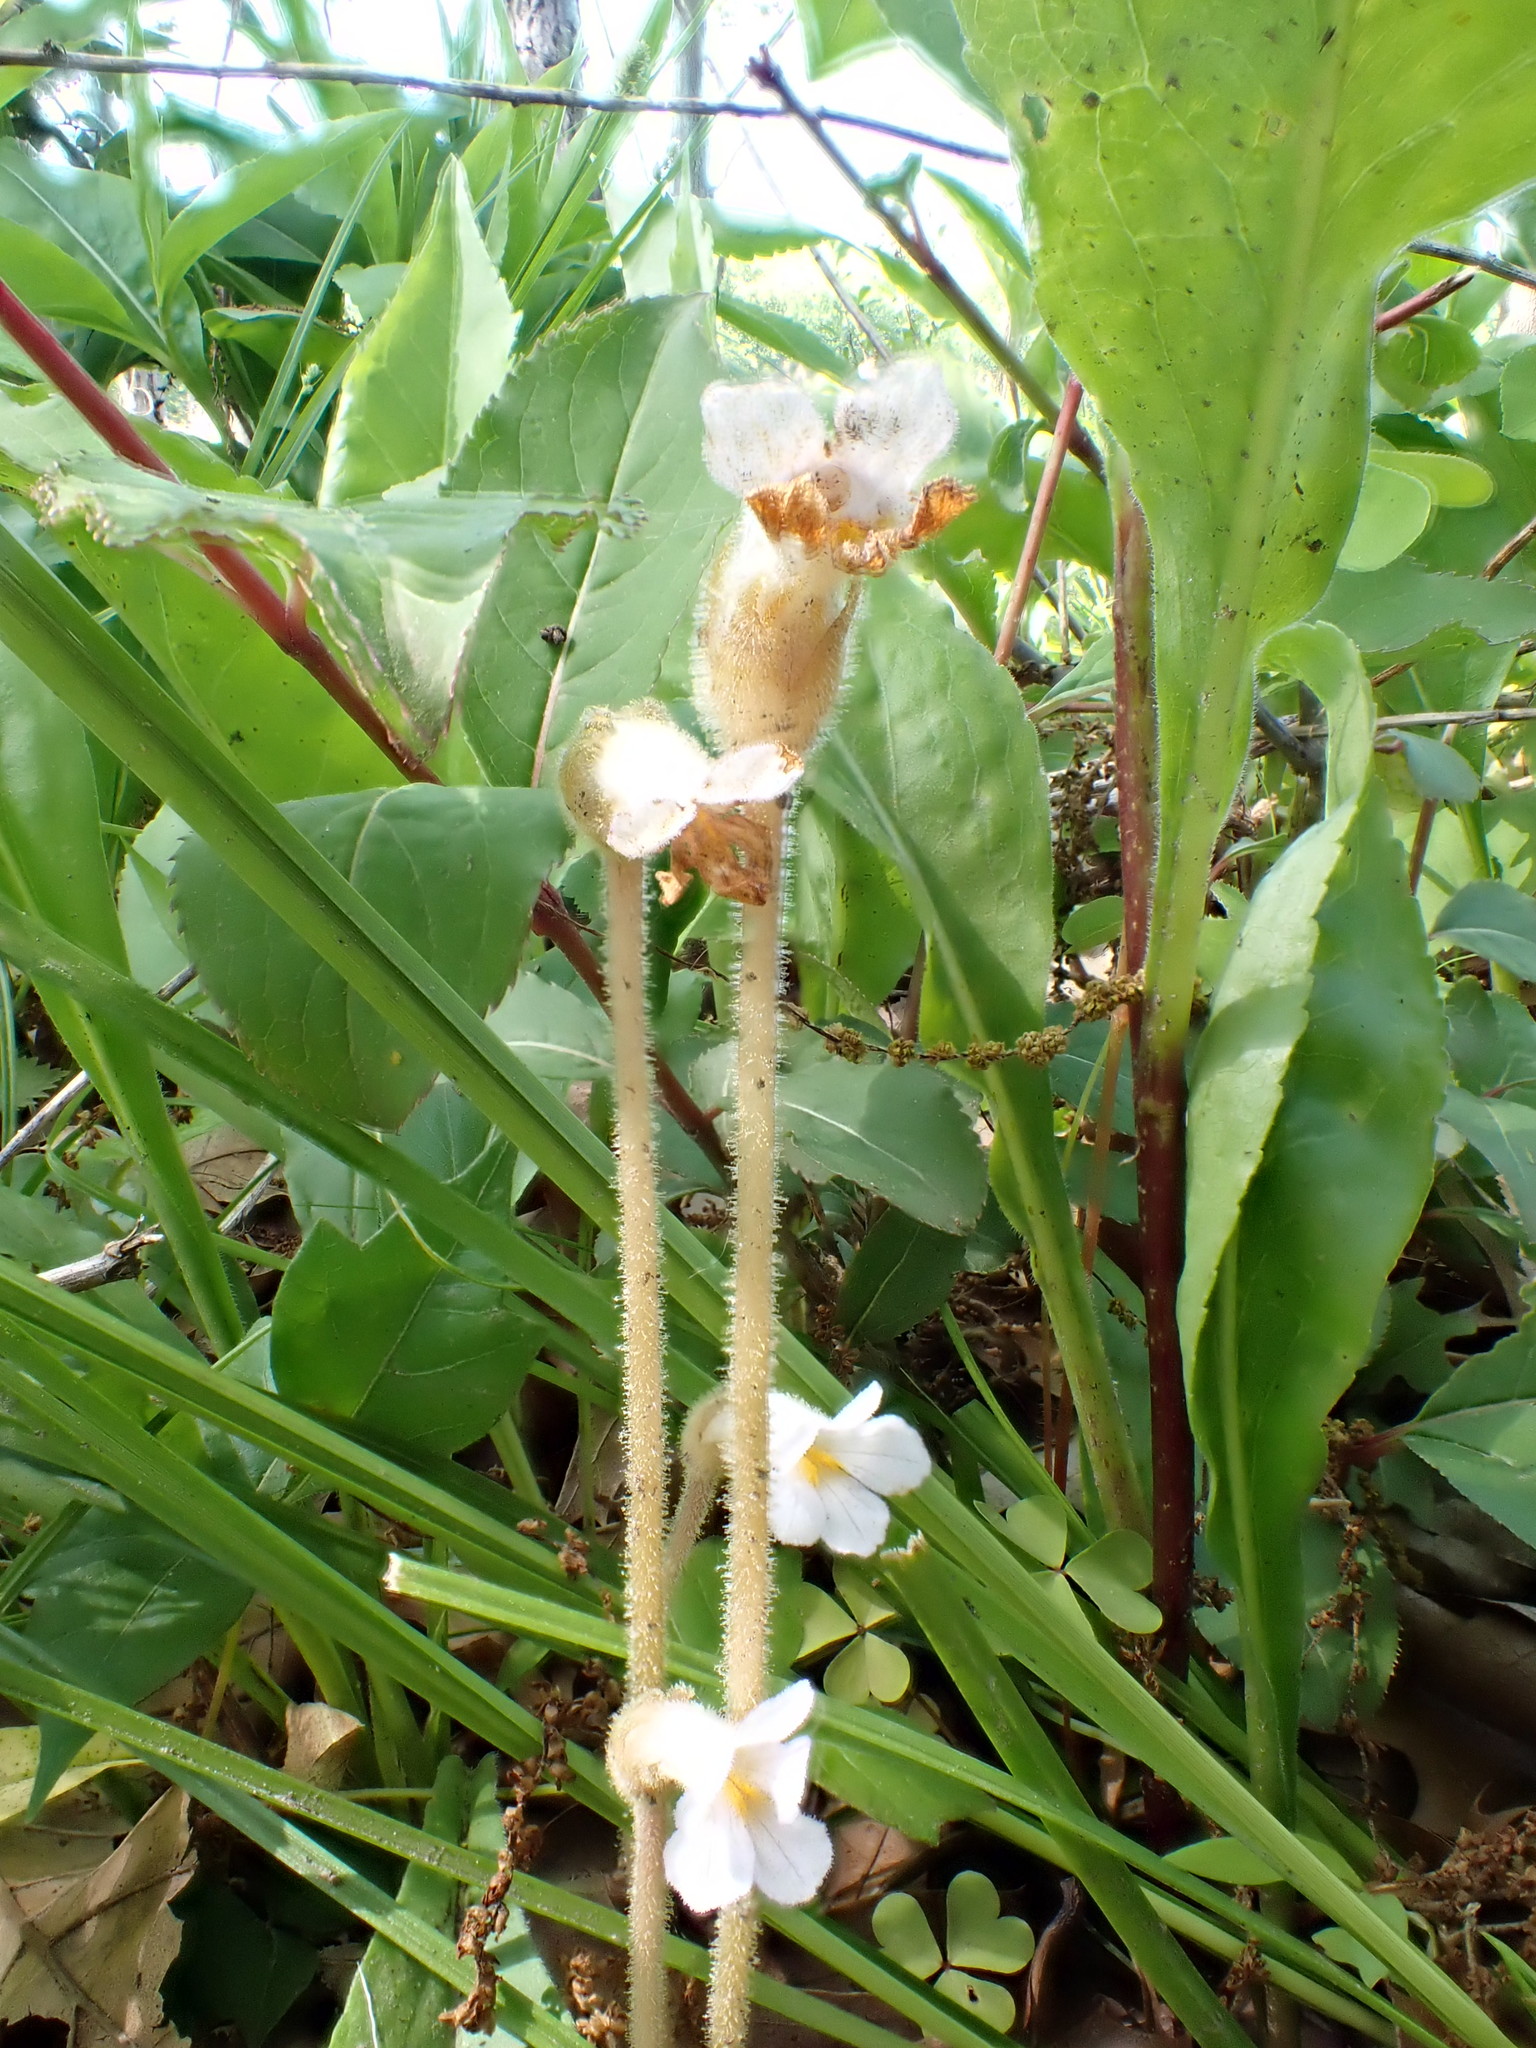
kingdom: Plantae
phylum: Tracheophyta
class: Magnoliopsida
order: Lamiales
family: Orobanchaceae
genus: Aphyllon
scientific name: Aphyllon uniflorum
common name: One-flowered broomrape
